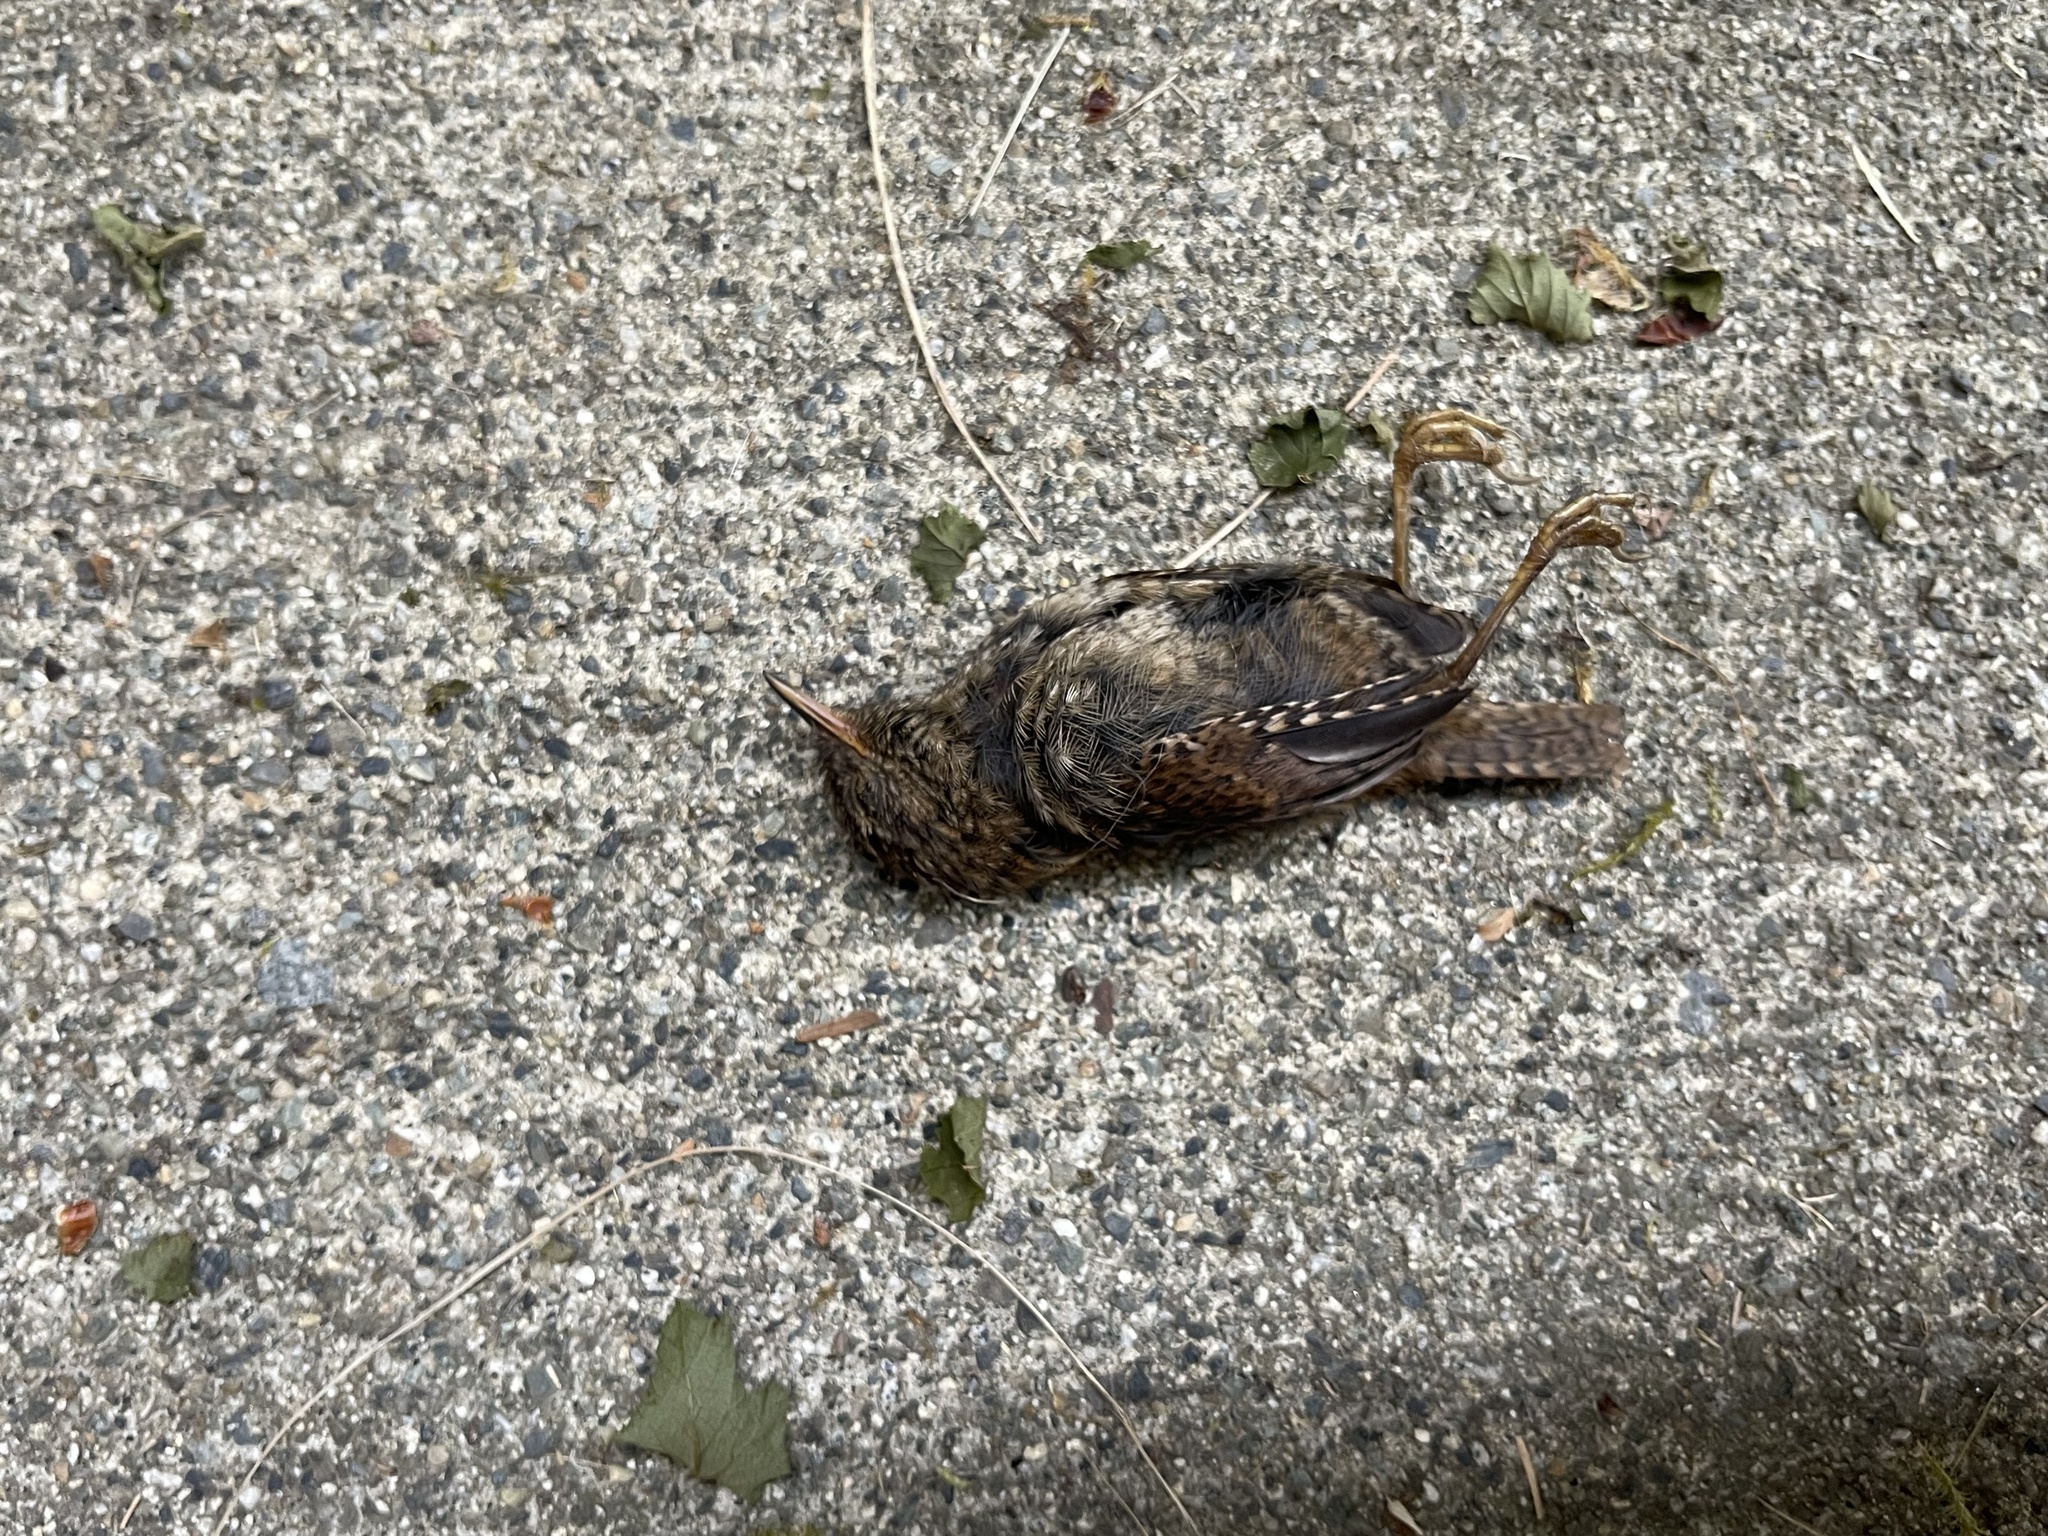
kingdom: Animalia
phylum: Chordata
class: Aves
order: Passeriformes
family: Troglodytidae
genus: Troglodytes
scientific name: Troglodytes pacificus
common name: Pacific wren
